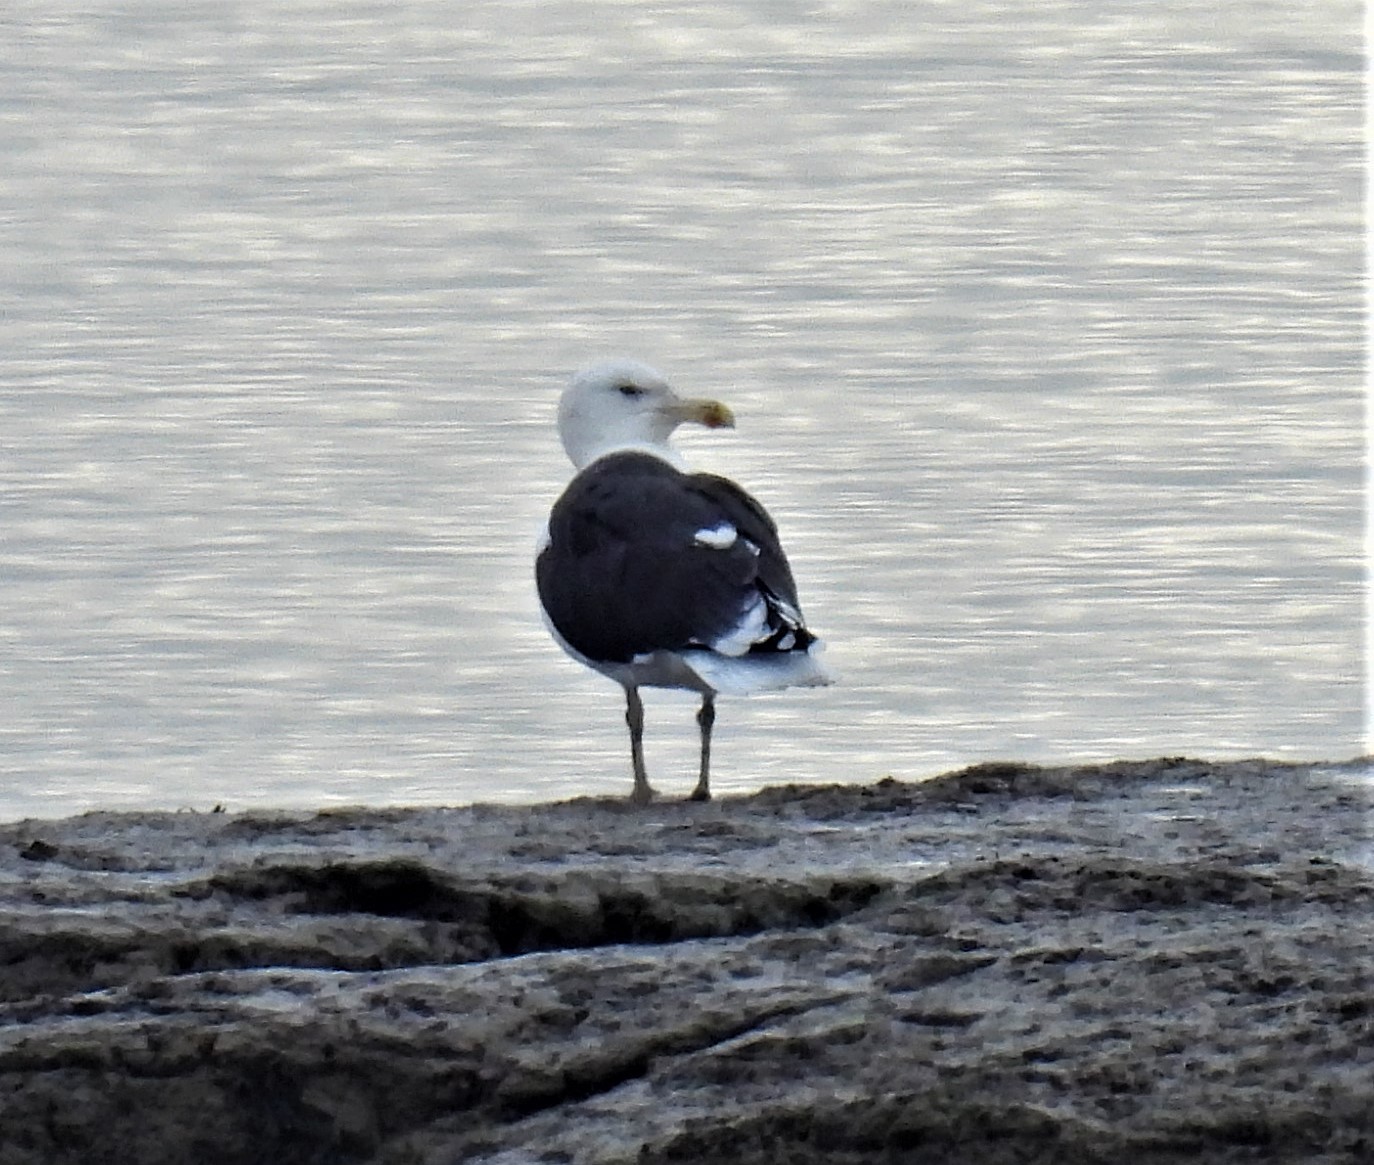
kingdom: Animalia
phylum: Chordata
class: Aves
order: Charadriiformes
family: Laridae
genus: Larus
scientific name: Larus marinus
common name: Great black-backed gull
